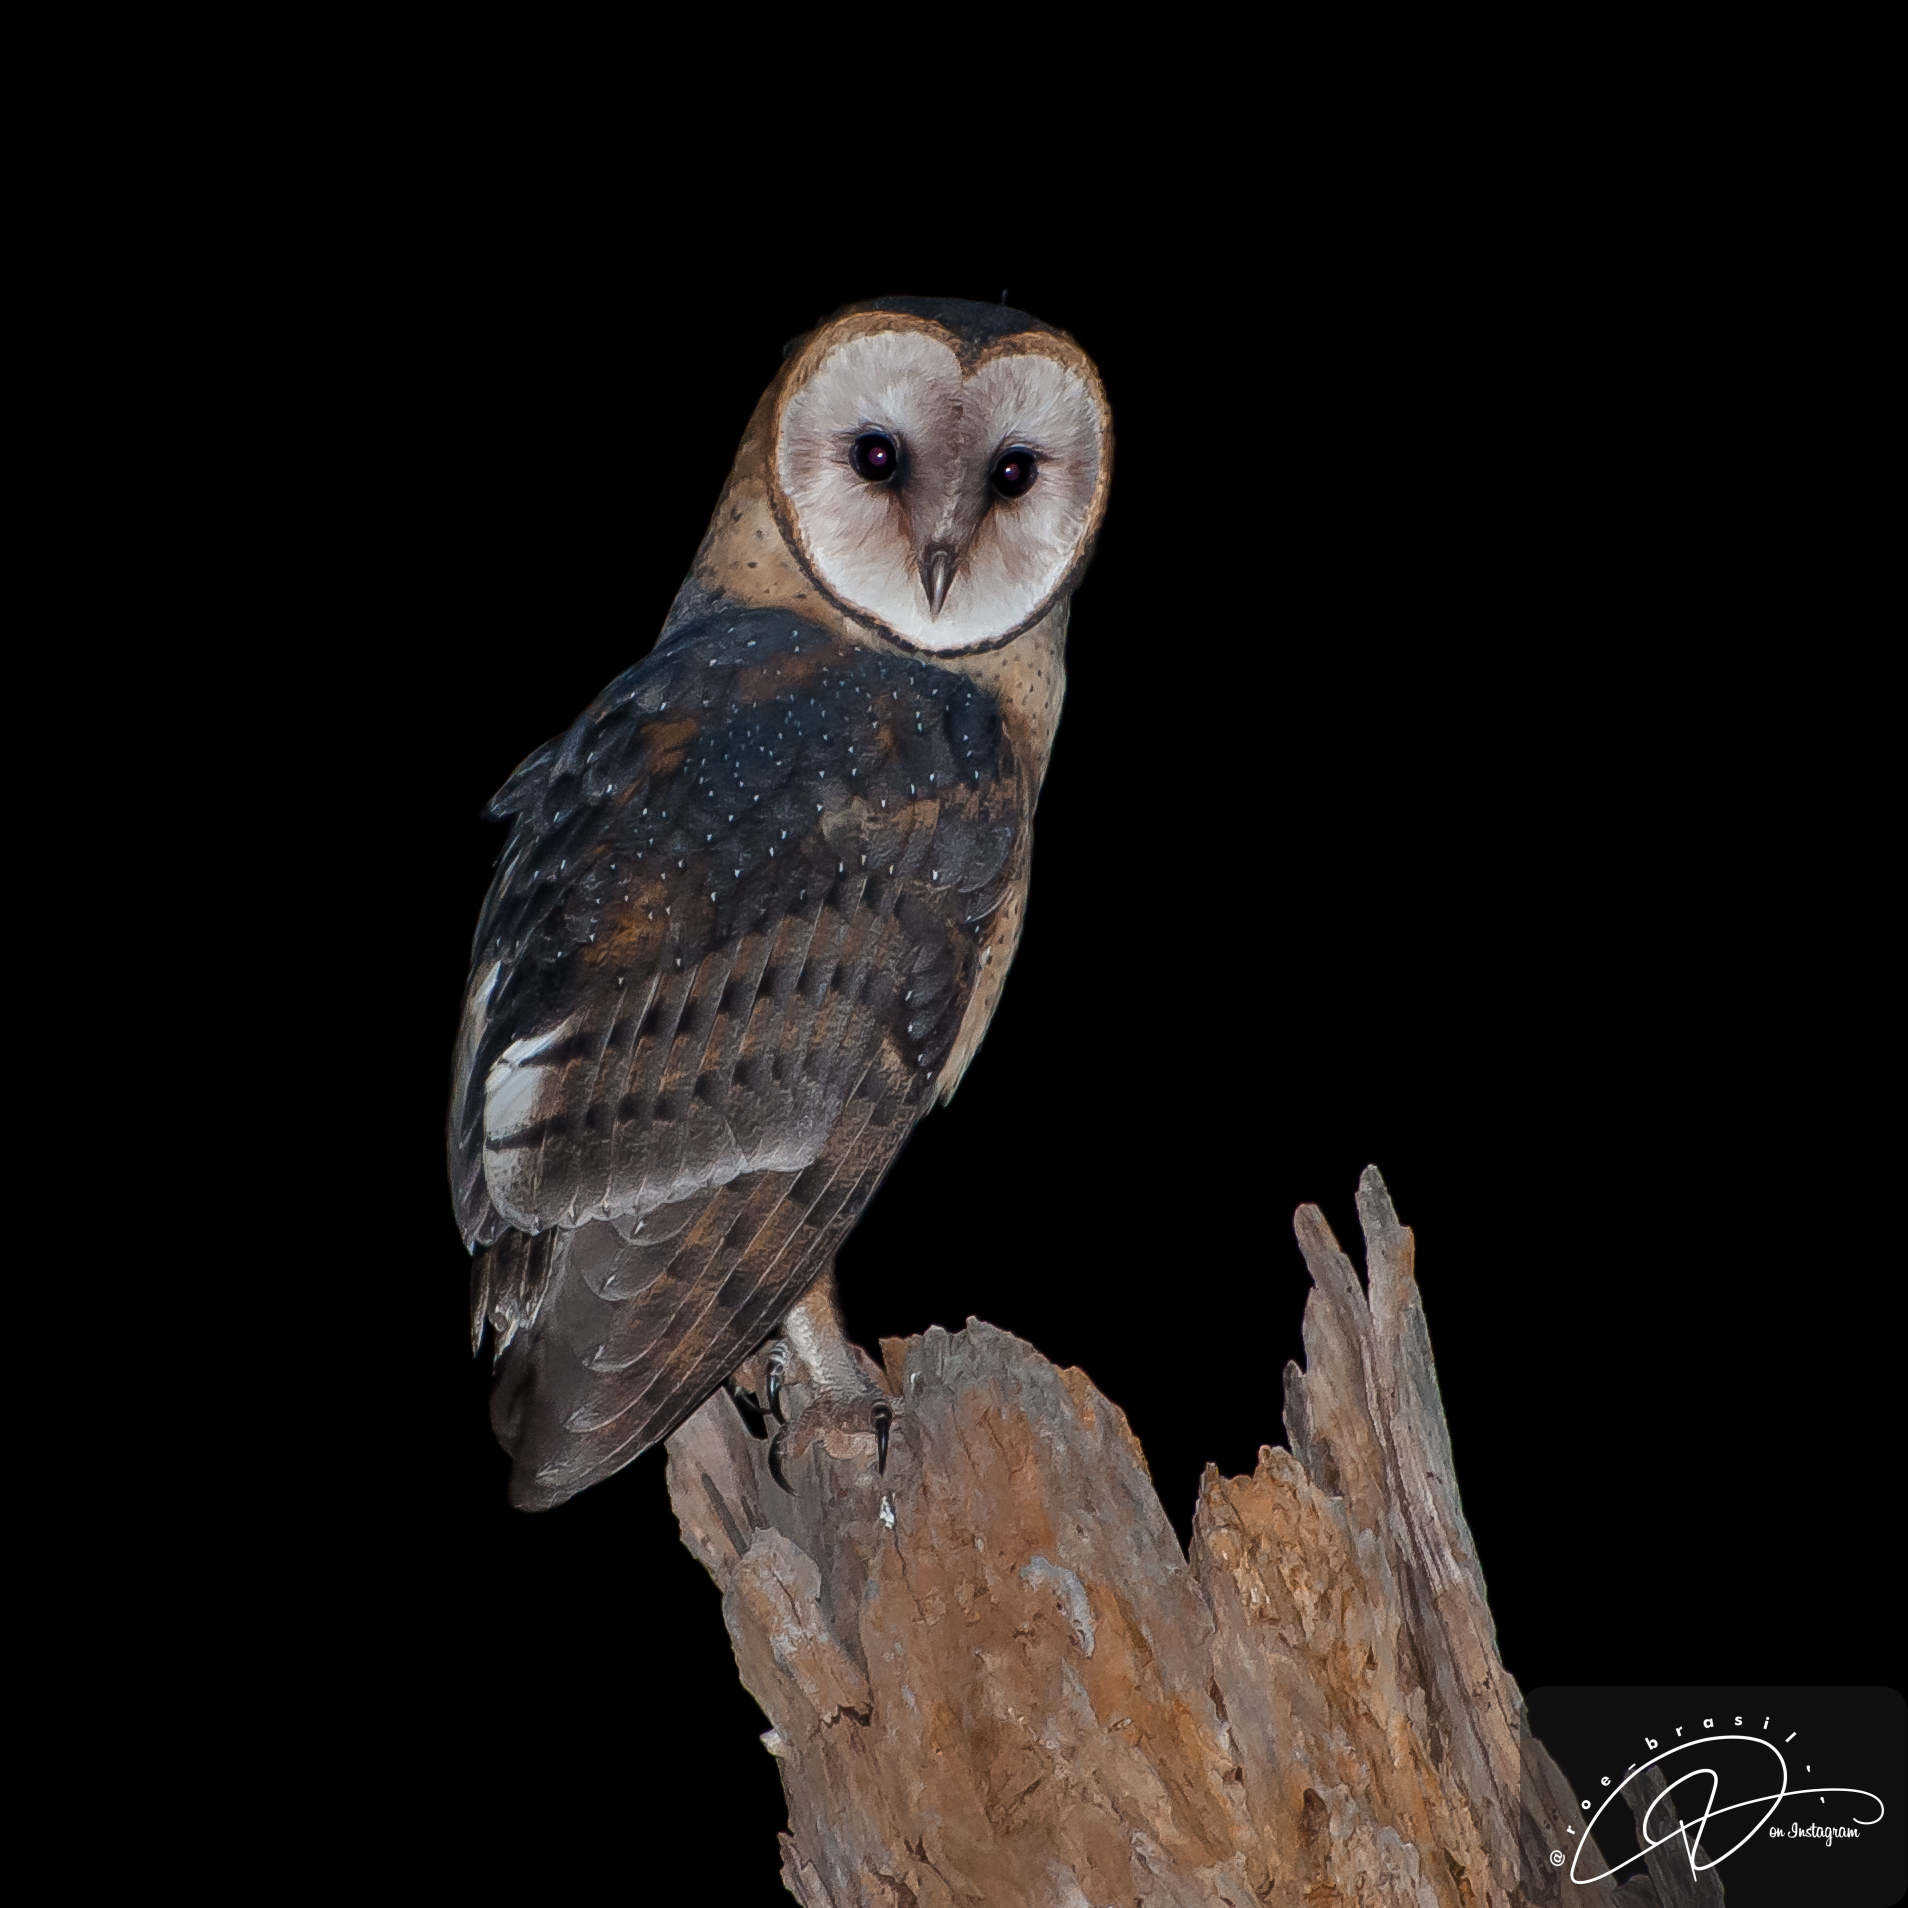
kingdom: Animalia
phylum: Chordata
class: Aves
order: Strigiformes
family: Tytonidae
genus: Tyto
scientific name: Tyto alba
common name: Barn owl
